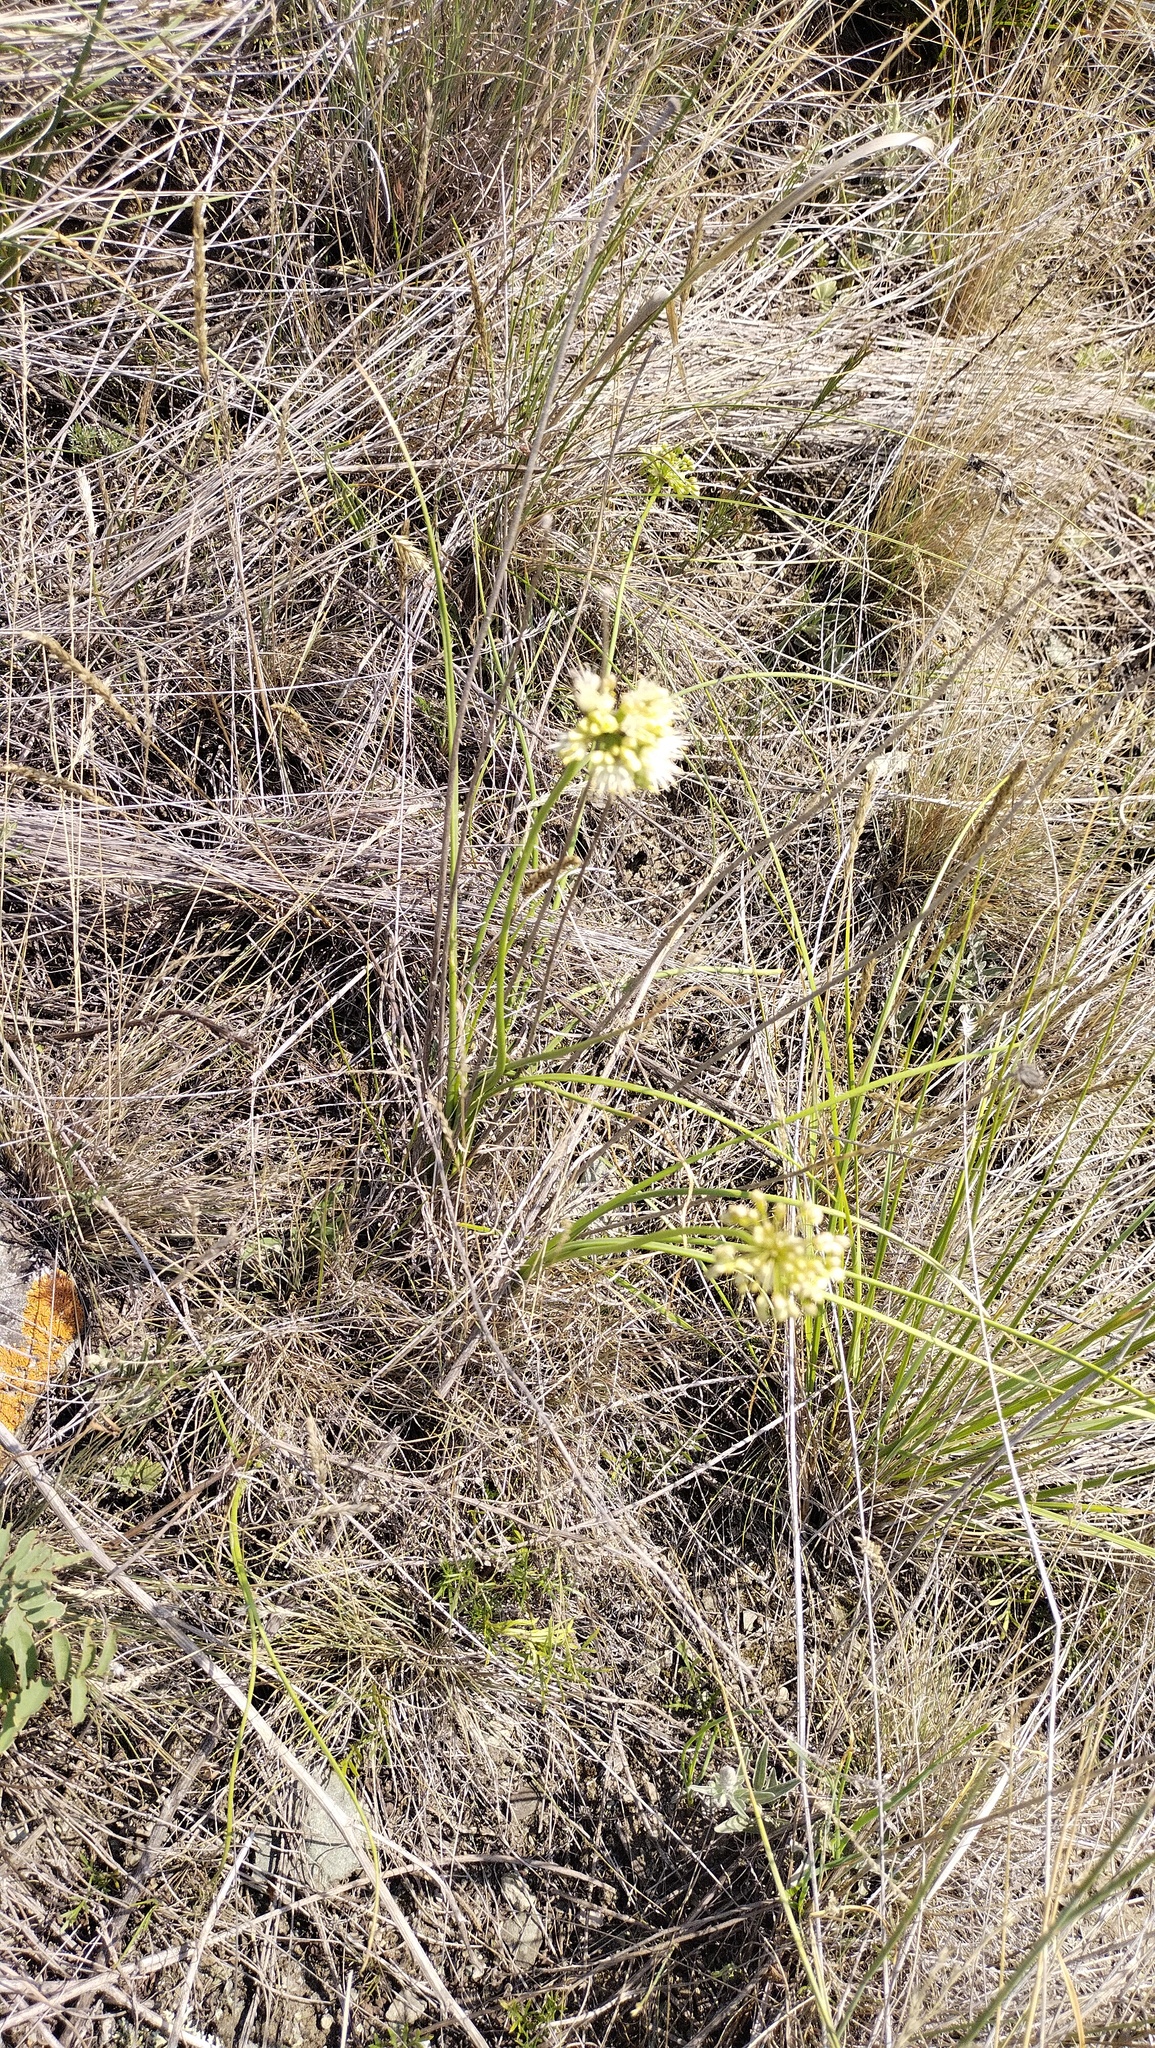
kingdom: Plantae
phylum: Tracheophyta
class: Liliopsida
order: Asparagales
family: Amaryllidaceae
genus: Allium
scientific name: Allium stellerianum
